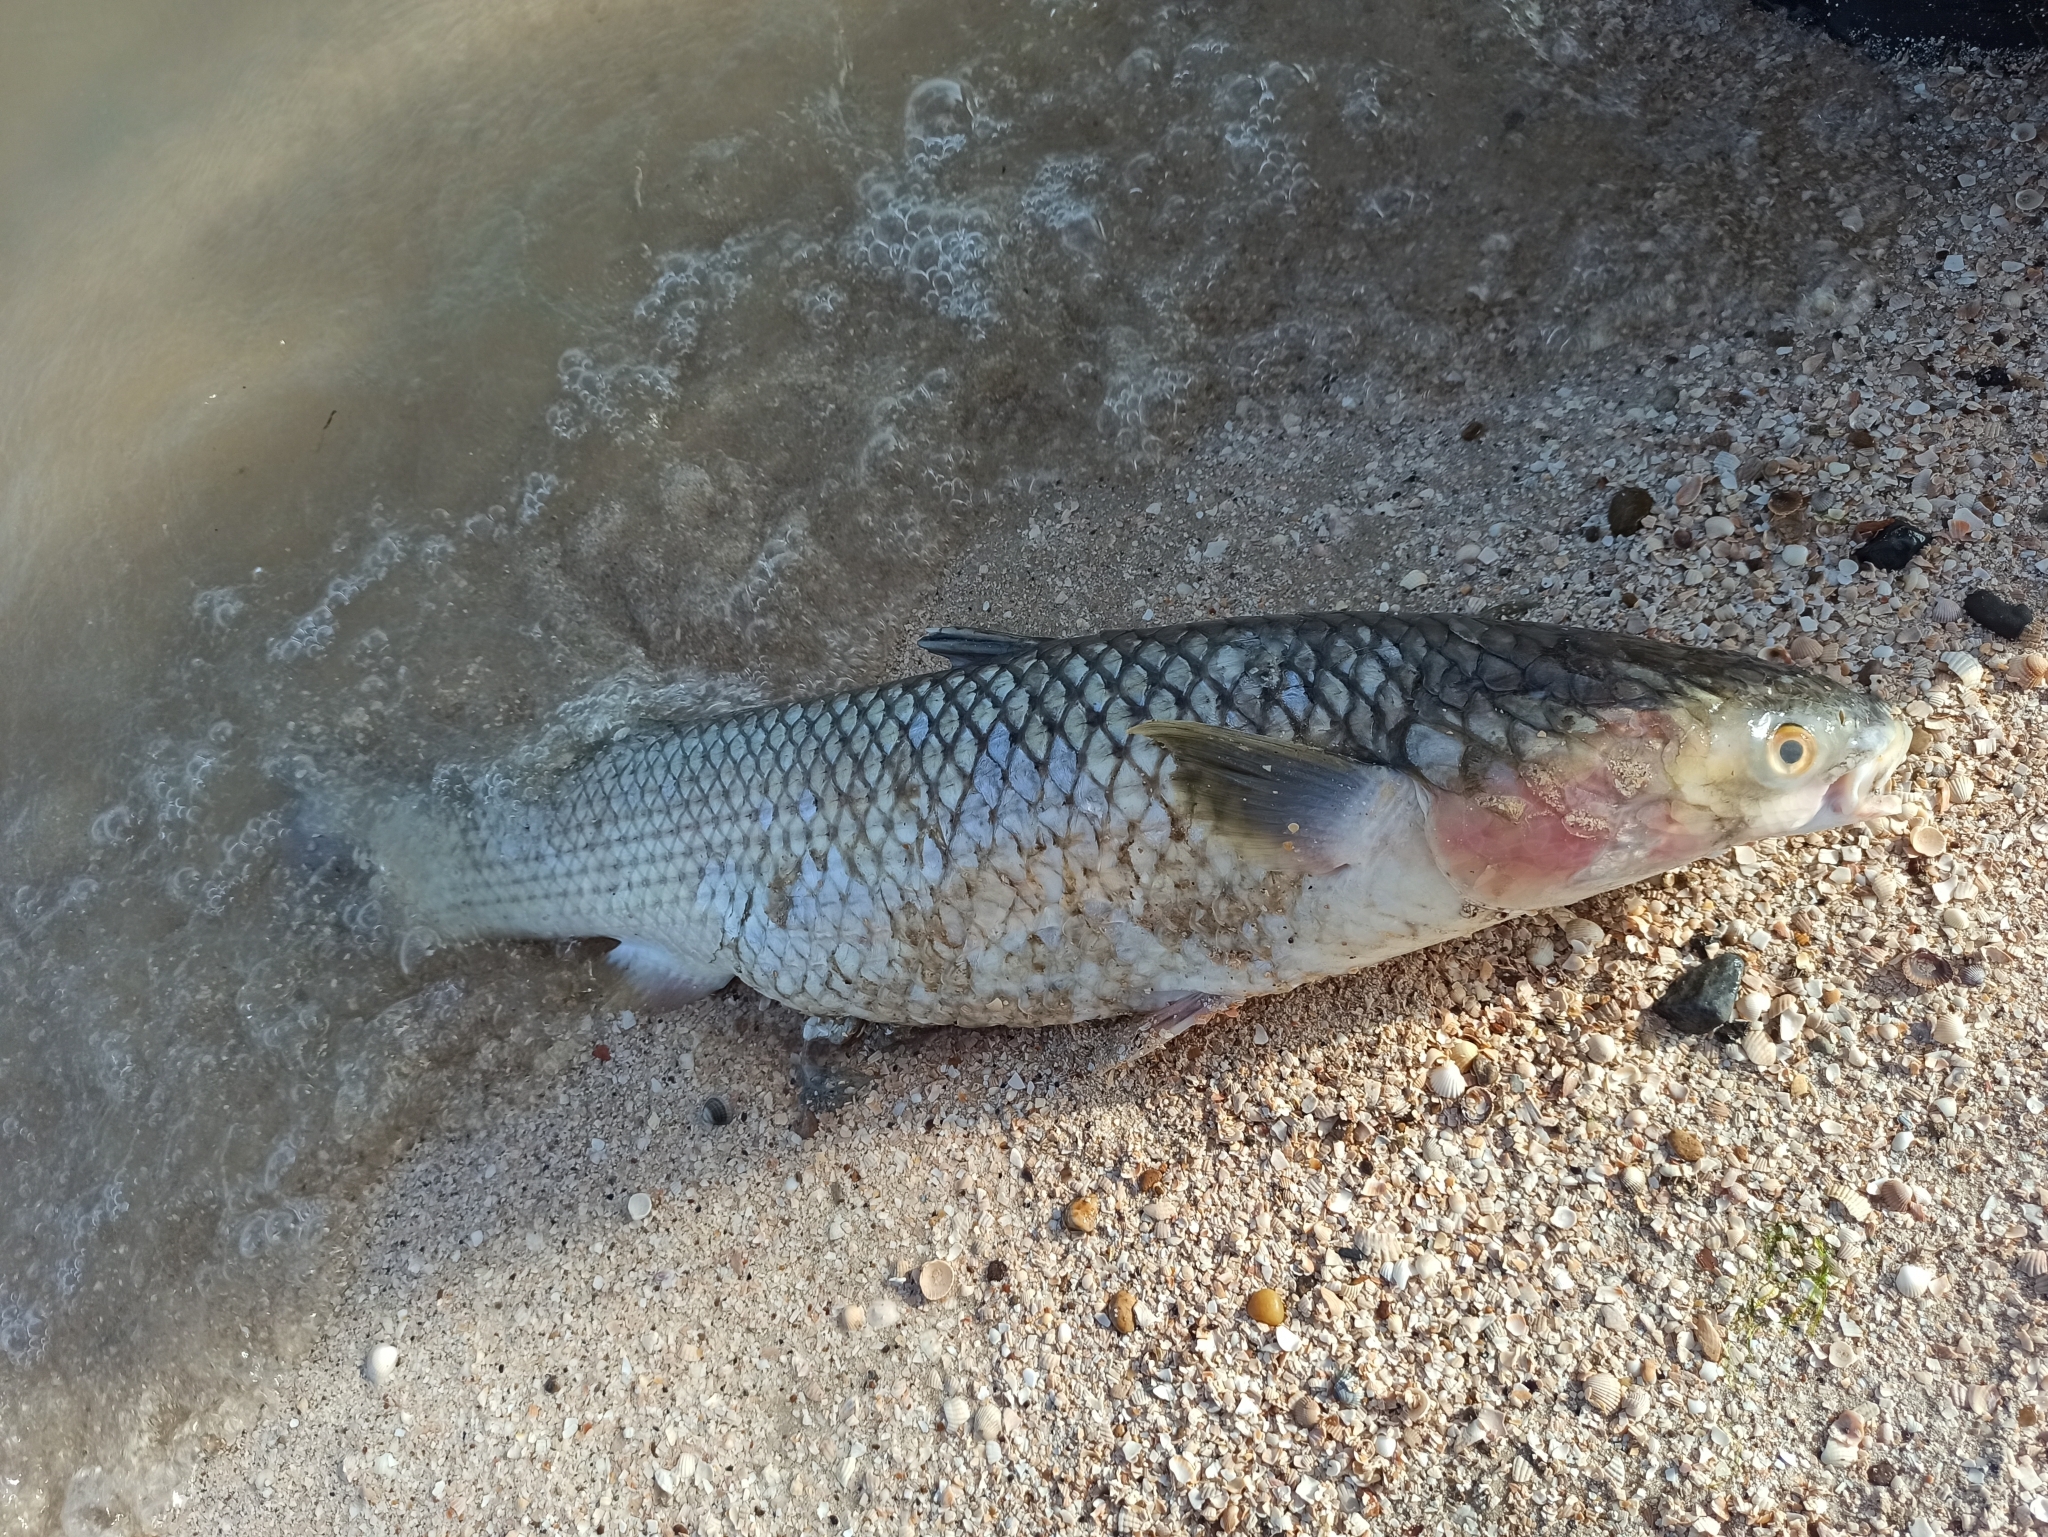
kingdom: Animalia
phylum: Chordata
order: Mugiliformes
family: Mugilidae
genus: Planiliza
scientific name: Planiliza haematocheila
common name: So-iuy mullet
